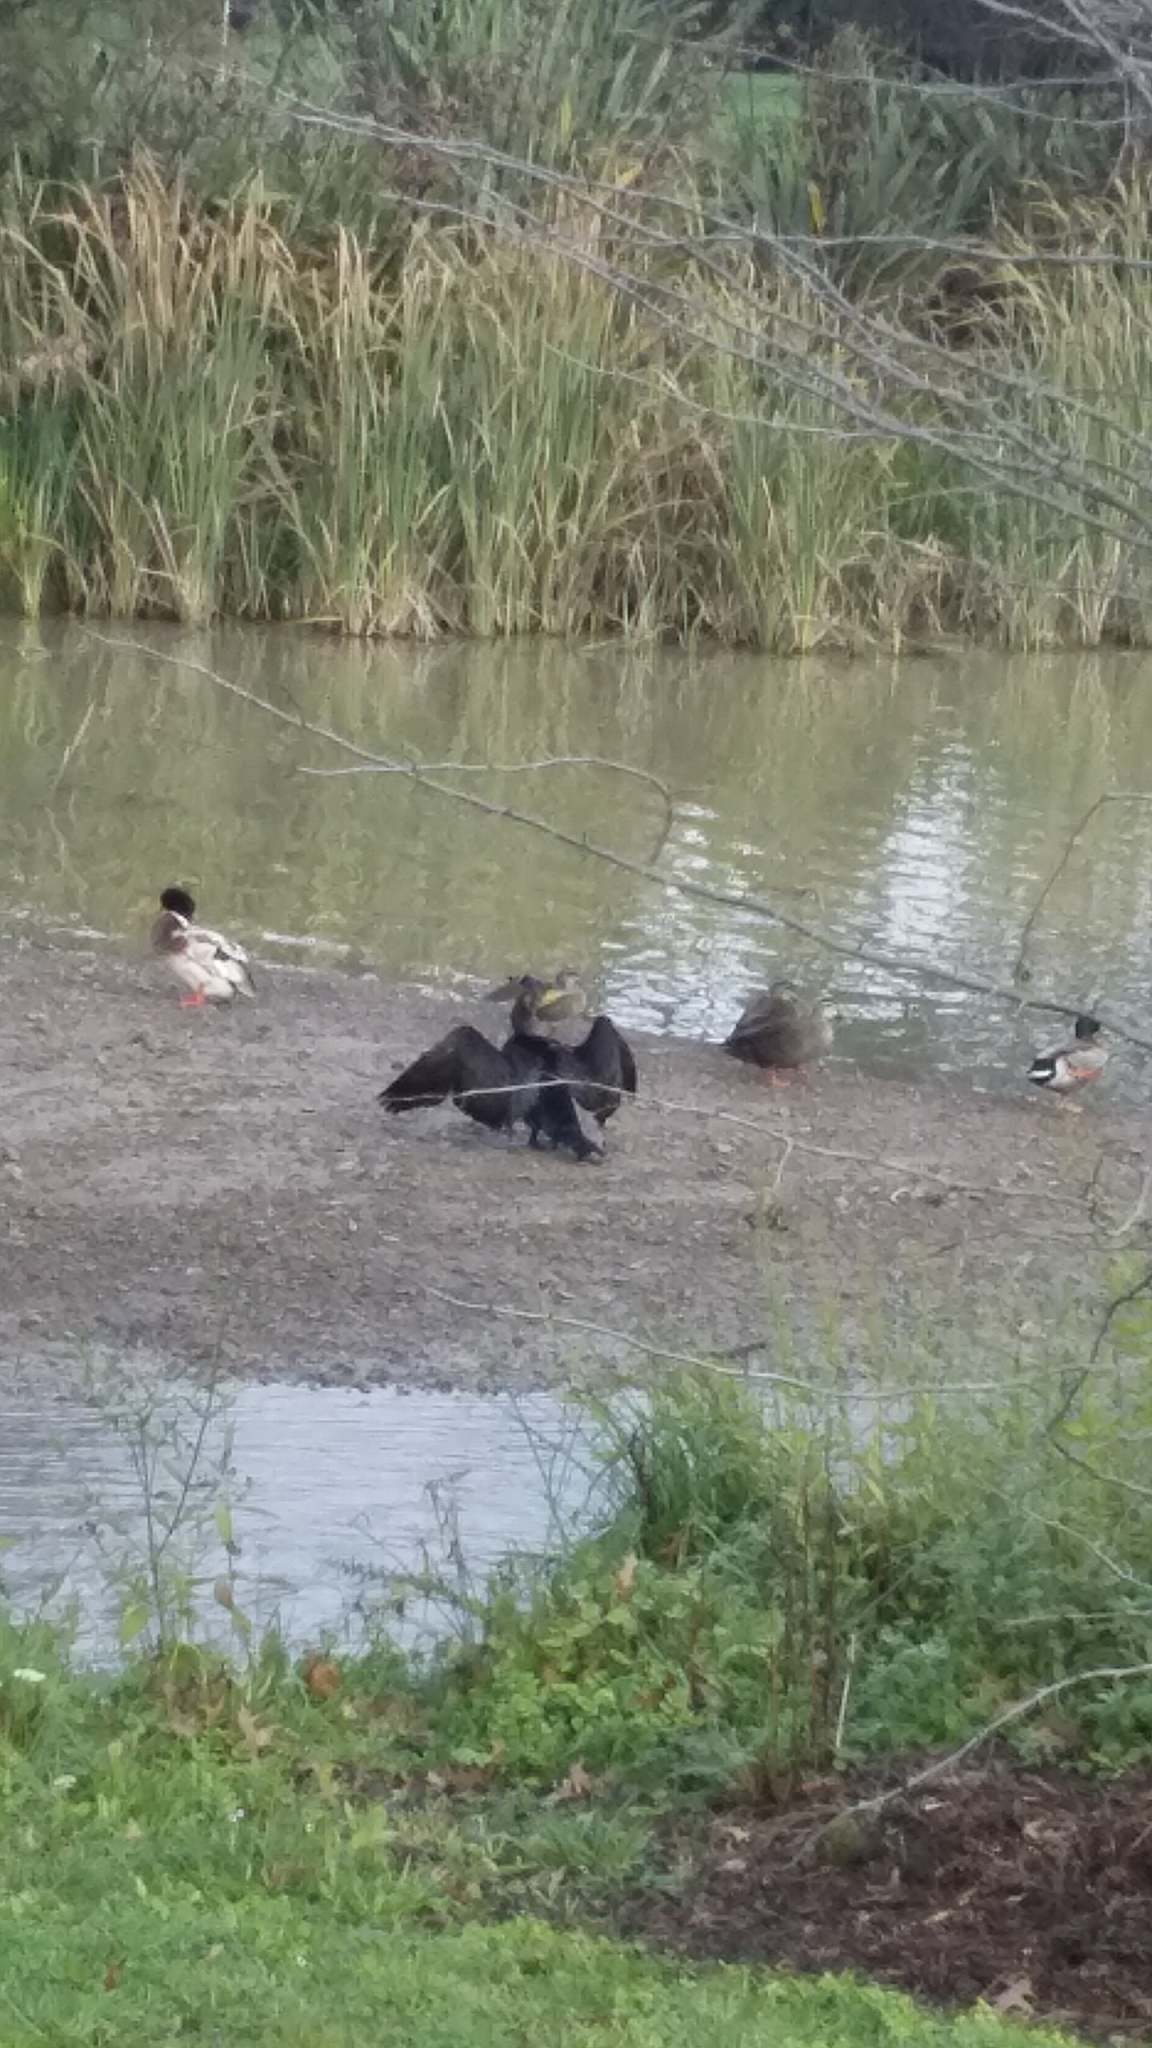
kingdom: Animalia
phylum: Chordata
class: Aves
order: Suliformes
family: Phalacrocoracidae
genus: Phalacrocorax
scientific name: Phalacrocorax carbo
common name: Great cormorant
